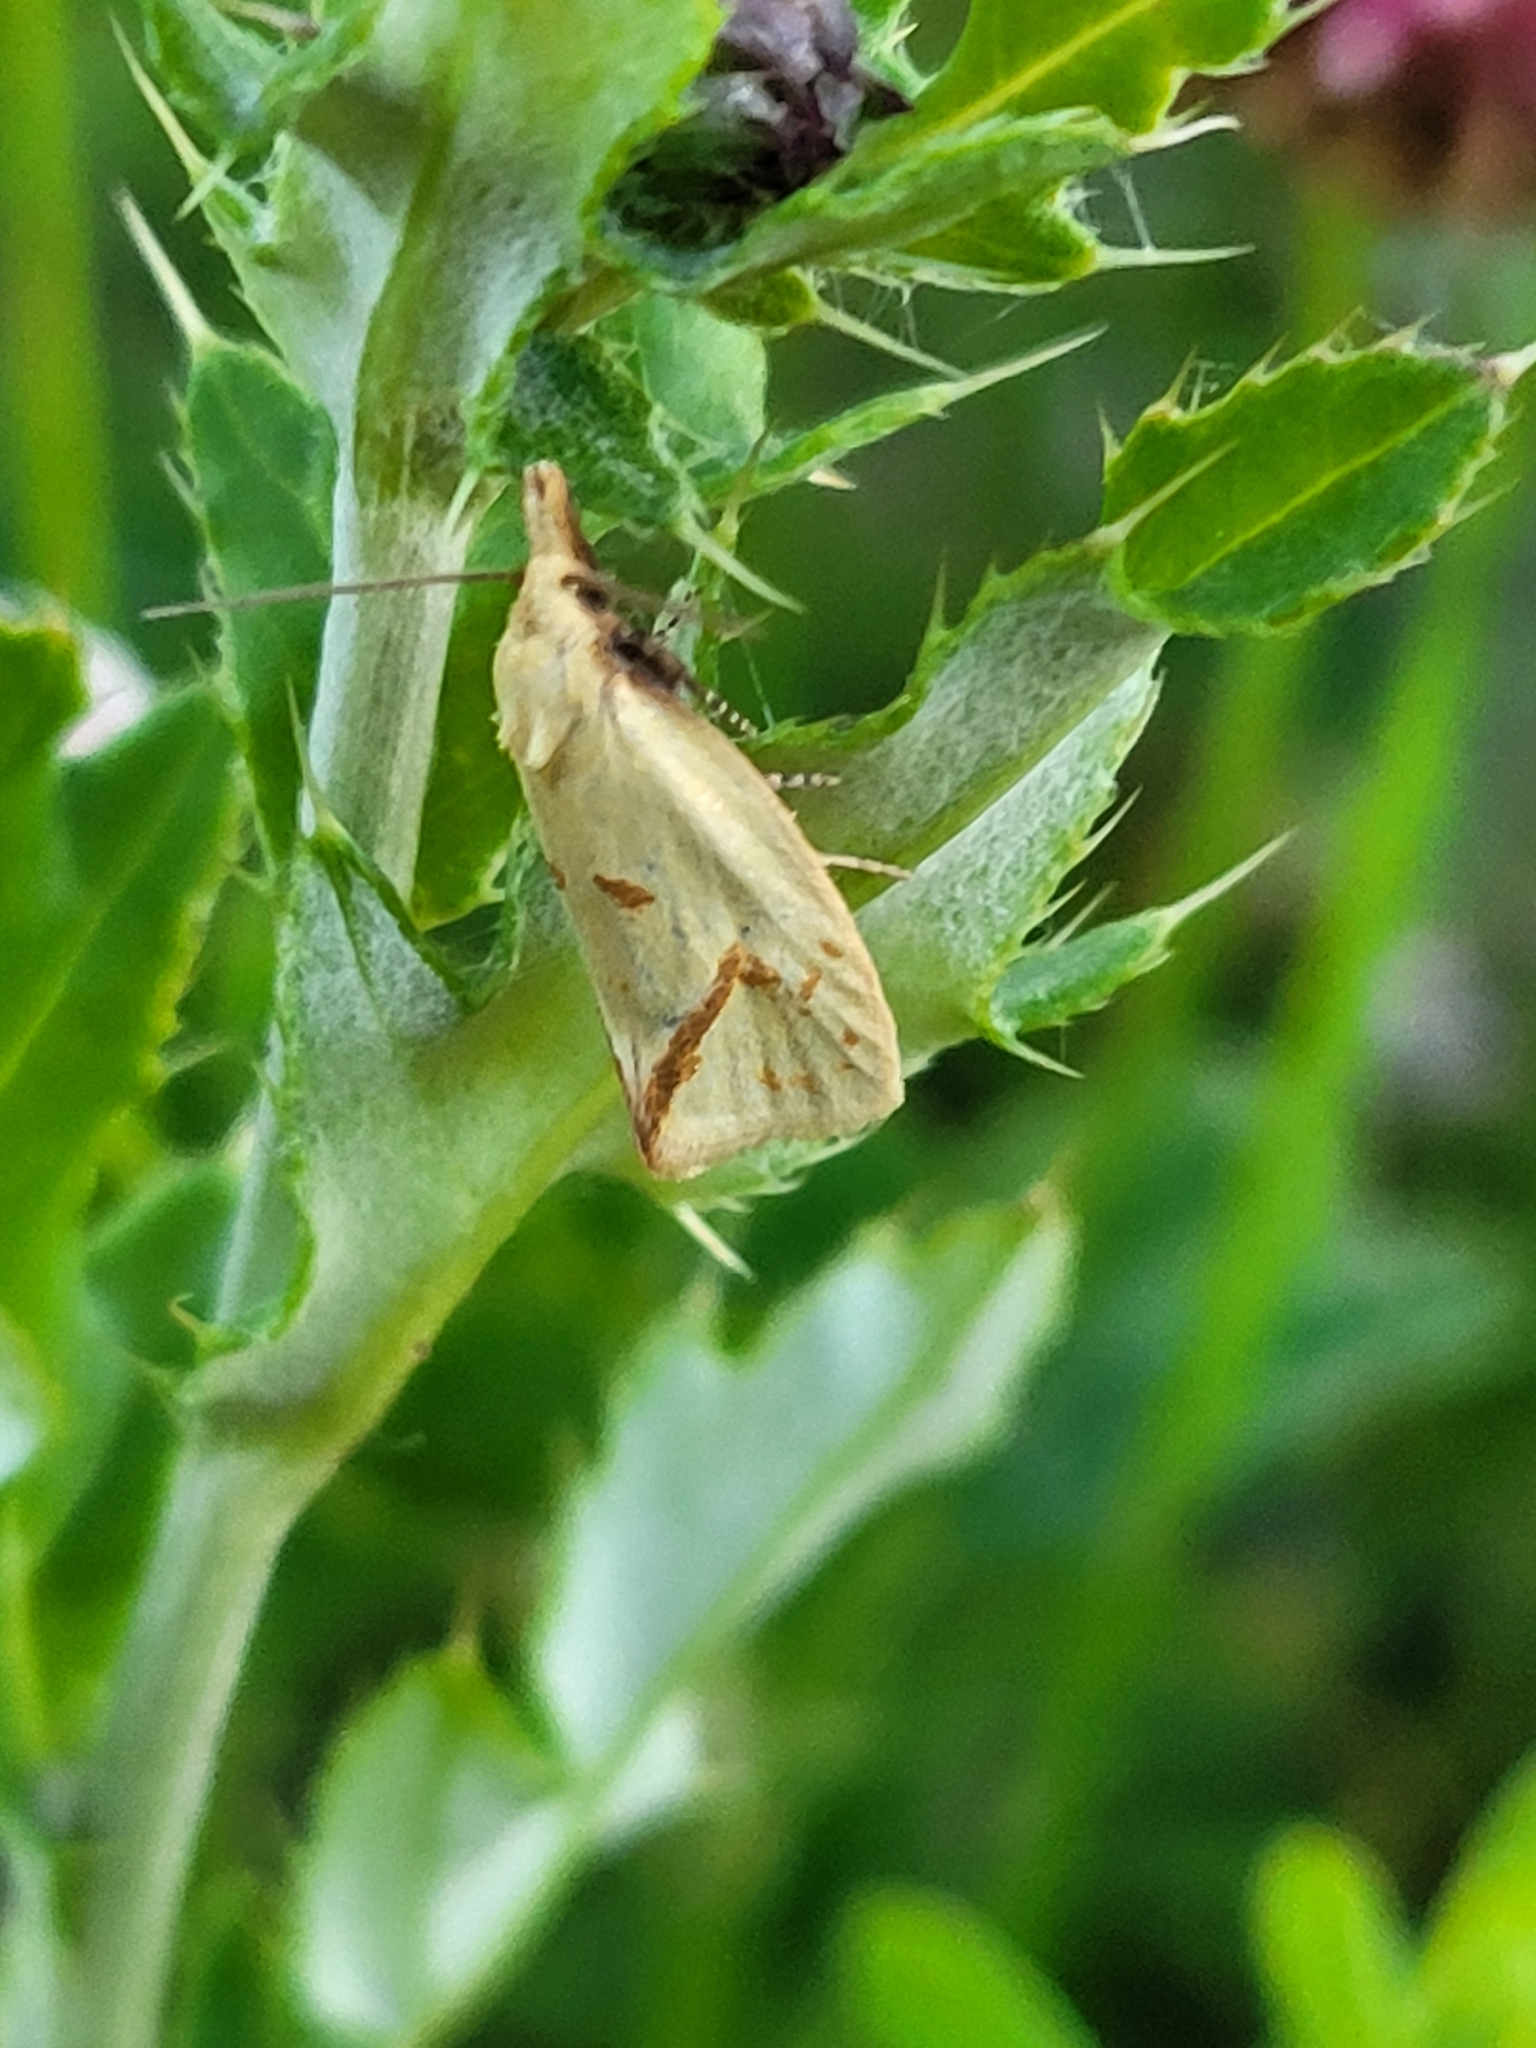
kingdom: Animalia
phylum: Arthropoda
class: Insecta
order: Lepidoptera
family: Tortricidae
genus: Agapeta
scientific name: Agapeta hamana
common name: Common yellow conch
